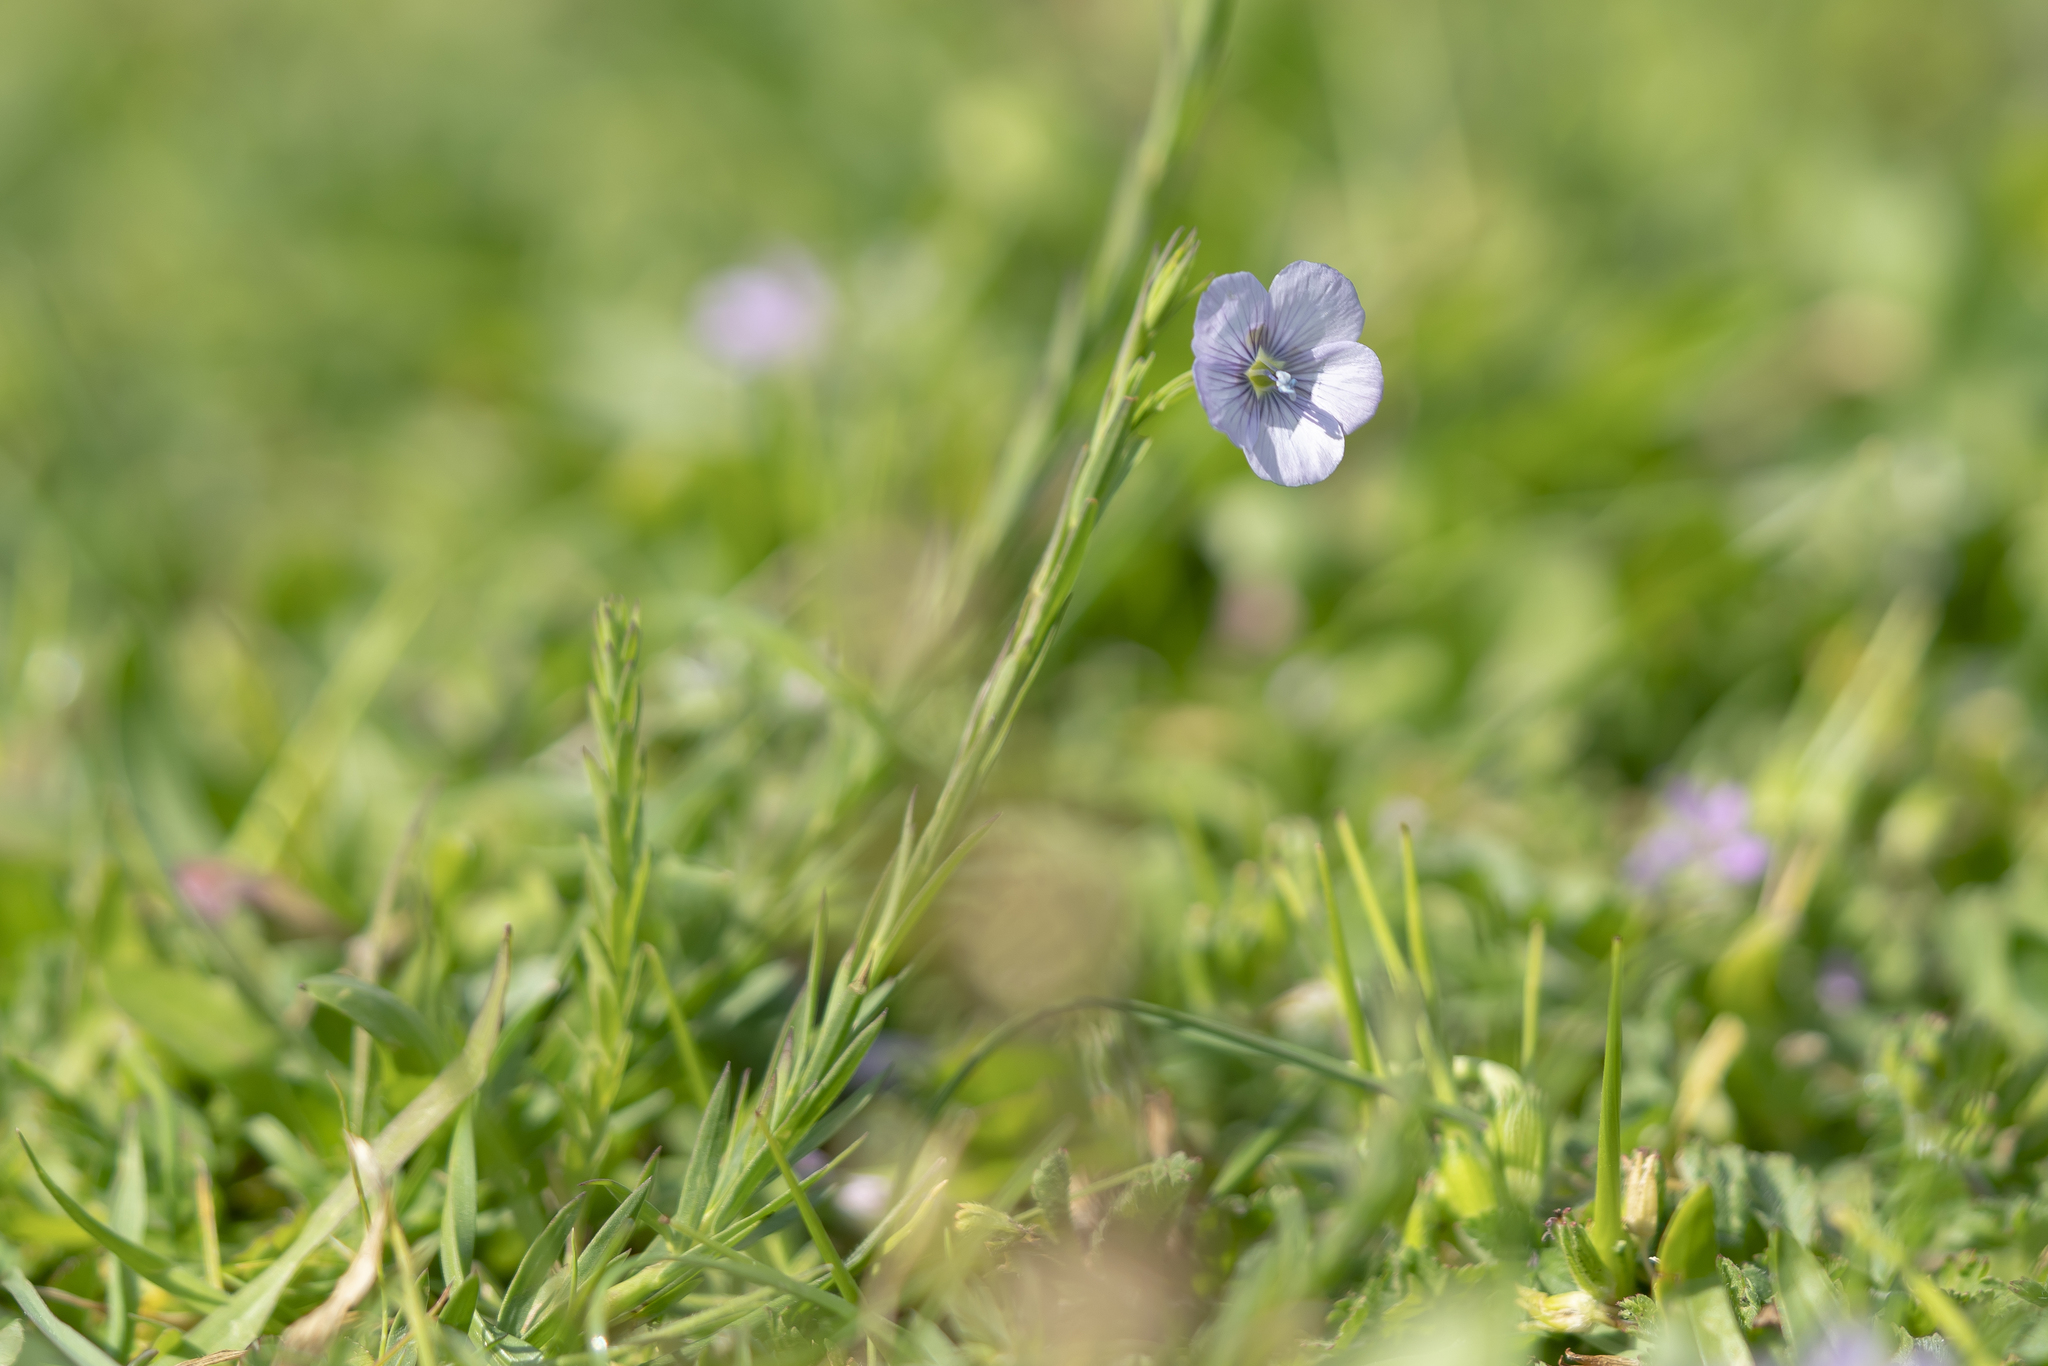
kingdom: Plantae
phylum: Tracheophyta
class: Magnoliopsida
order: Malpighiales
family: Linaceae
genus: Linum
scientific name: Linum bienne
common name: Pale flax
